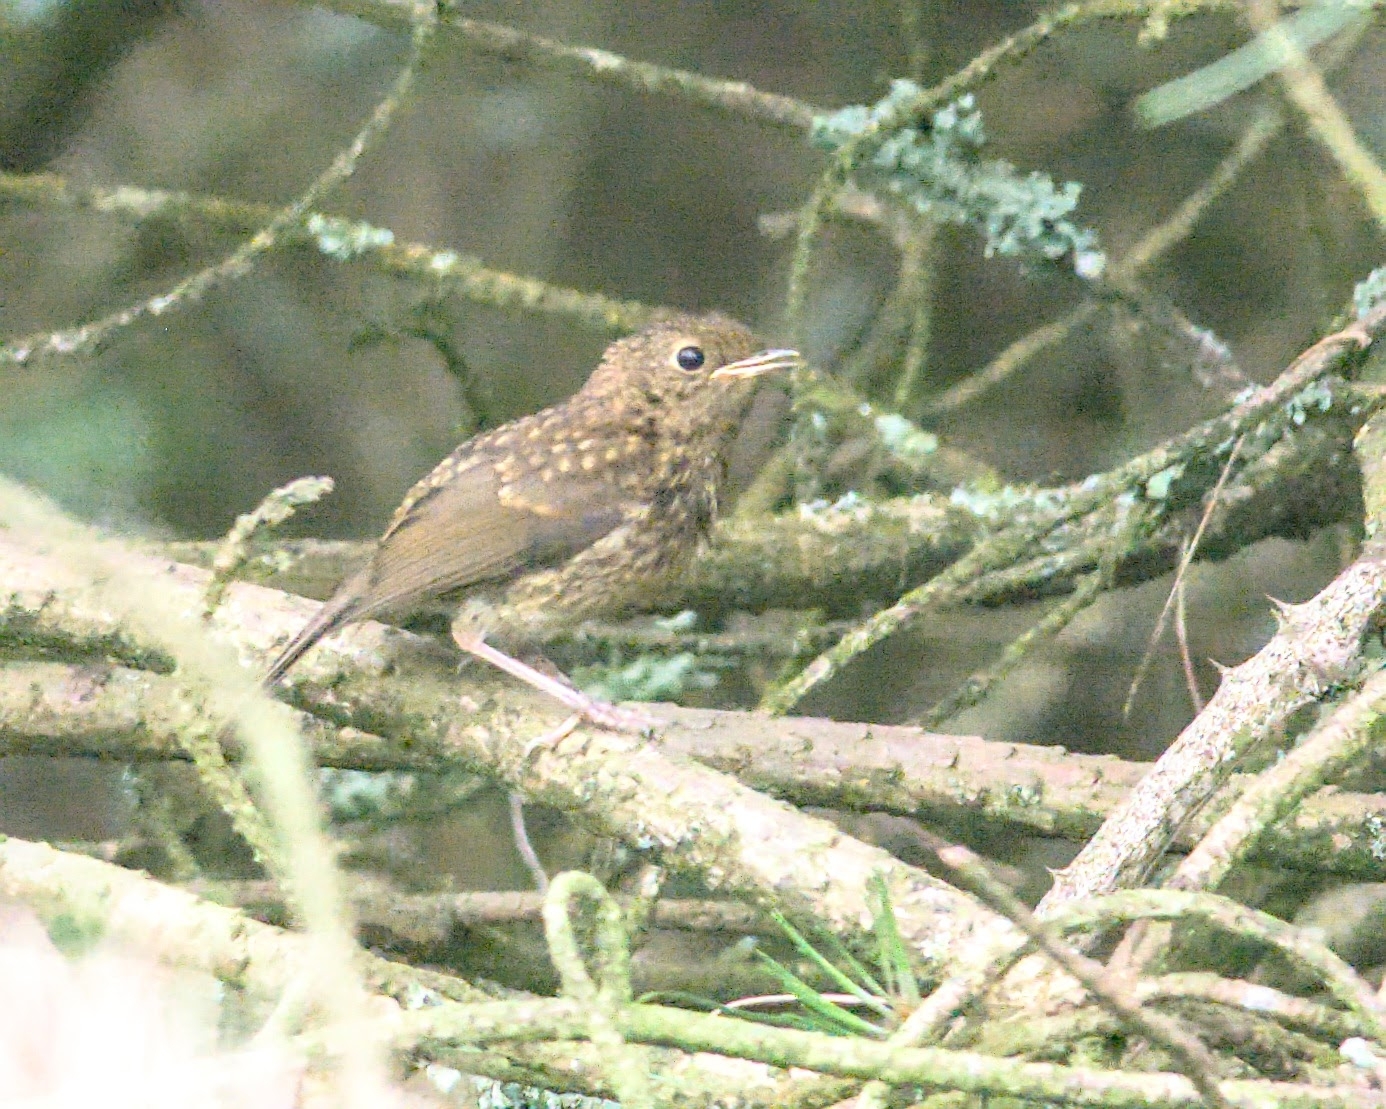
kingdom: Animalia
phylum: Chordata
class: Aves
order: Passeriformes
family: Muscicapidae
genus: Erithacus
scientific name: Erithacus rubecula
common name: European robin
